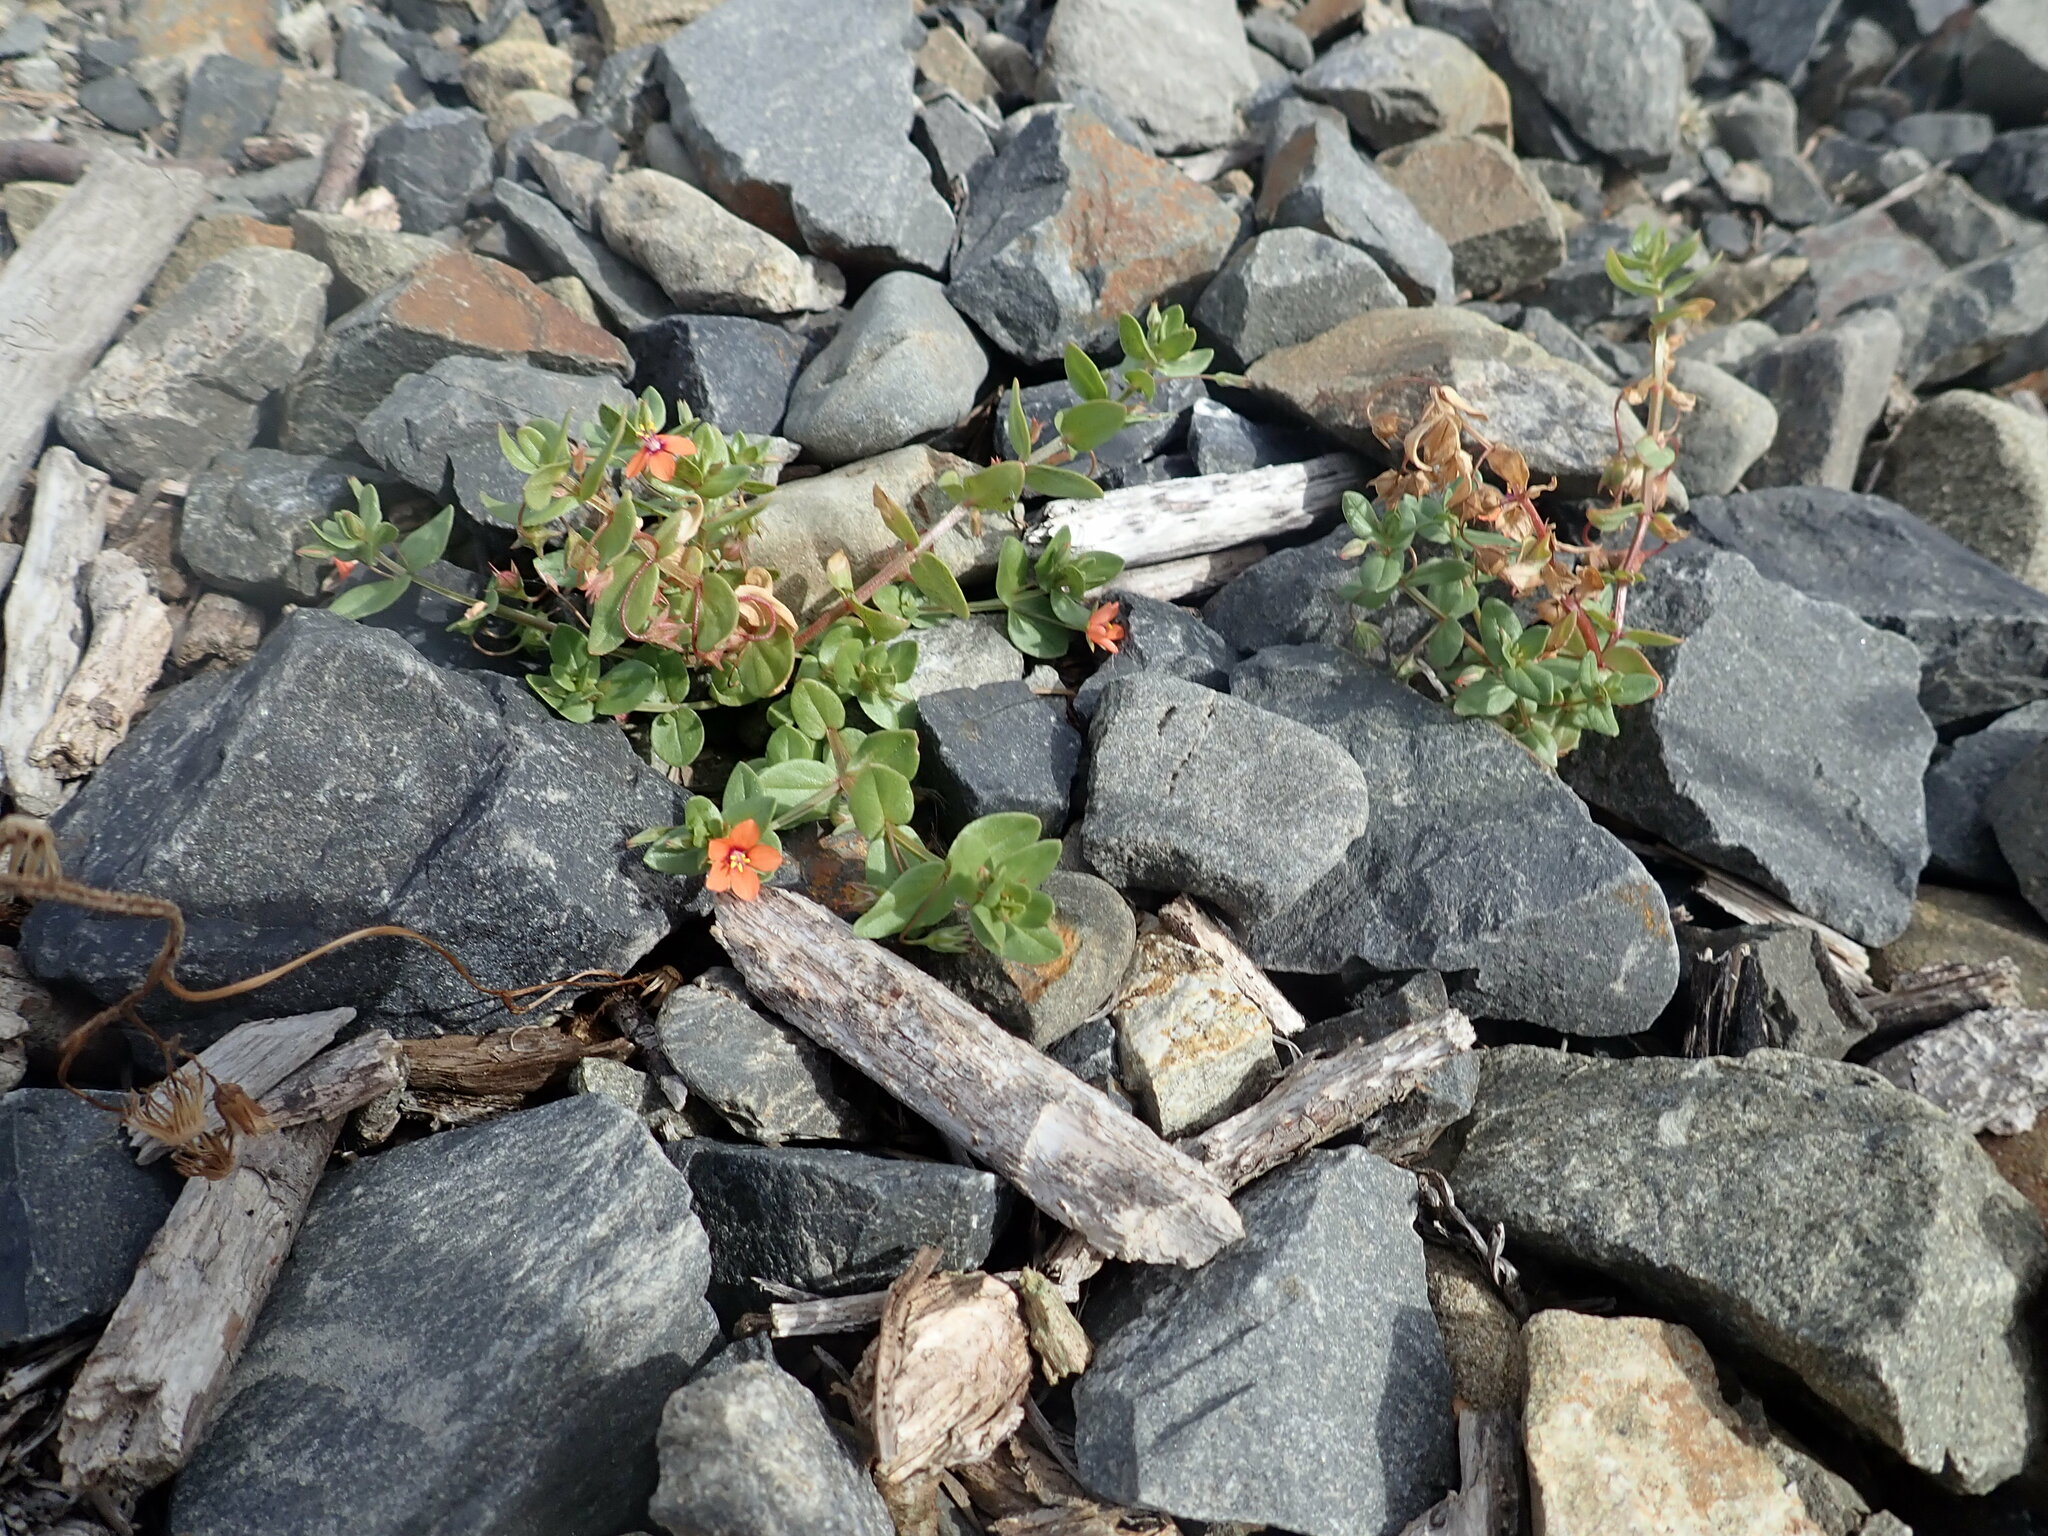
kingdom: Plantae
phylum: Tracheophyta
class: Magnoliopsida
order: Ericales
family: Primulaceae
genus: Lysimachia
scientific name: Lysimachia arvensis
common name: Scarlet pimpernel
